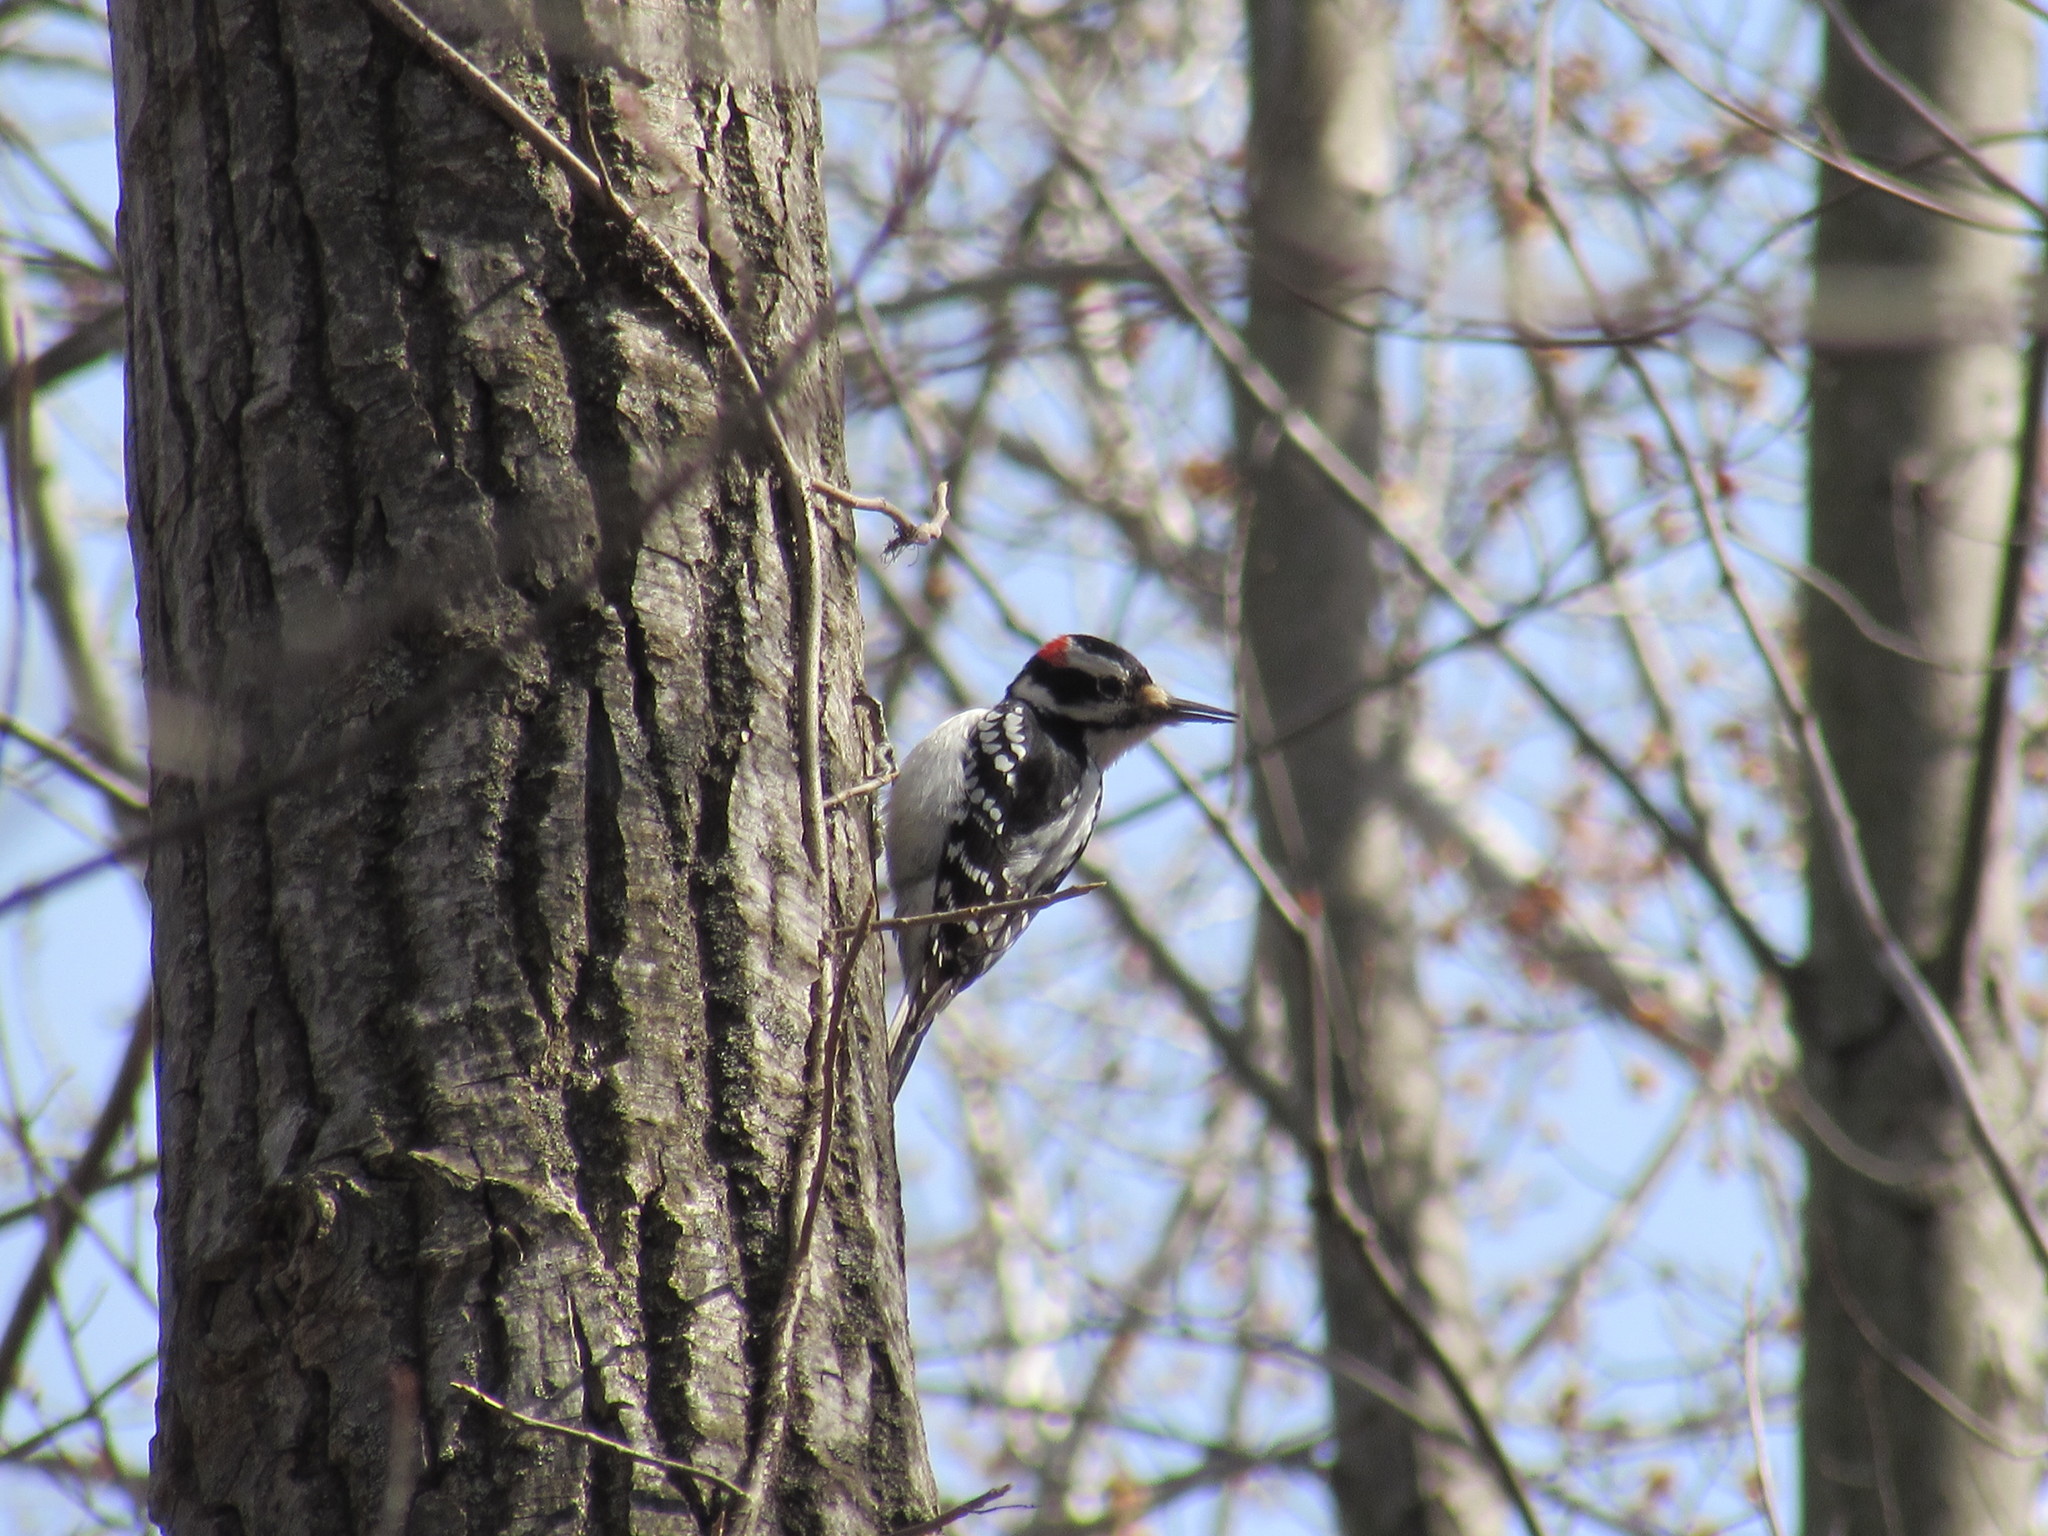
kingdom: Animalia
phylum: Chordata
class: Aves
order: Piciformes
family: Picidae
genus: Leuconotopicus
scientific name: Leuconotopicus villosus
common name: Hairy woodpecker
